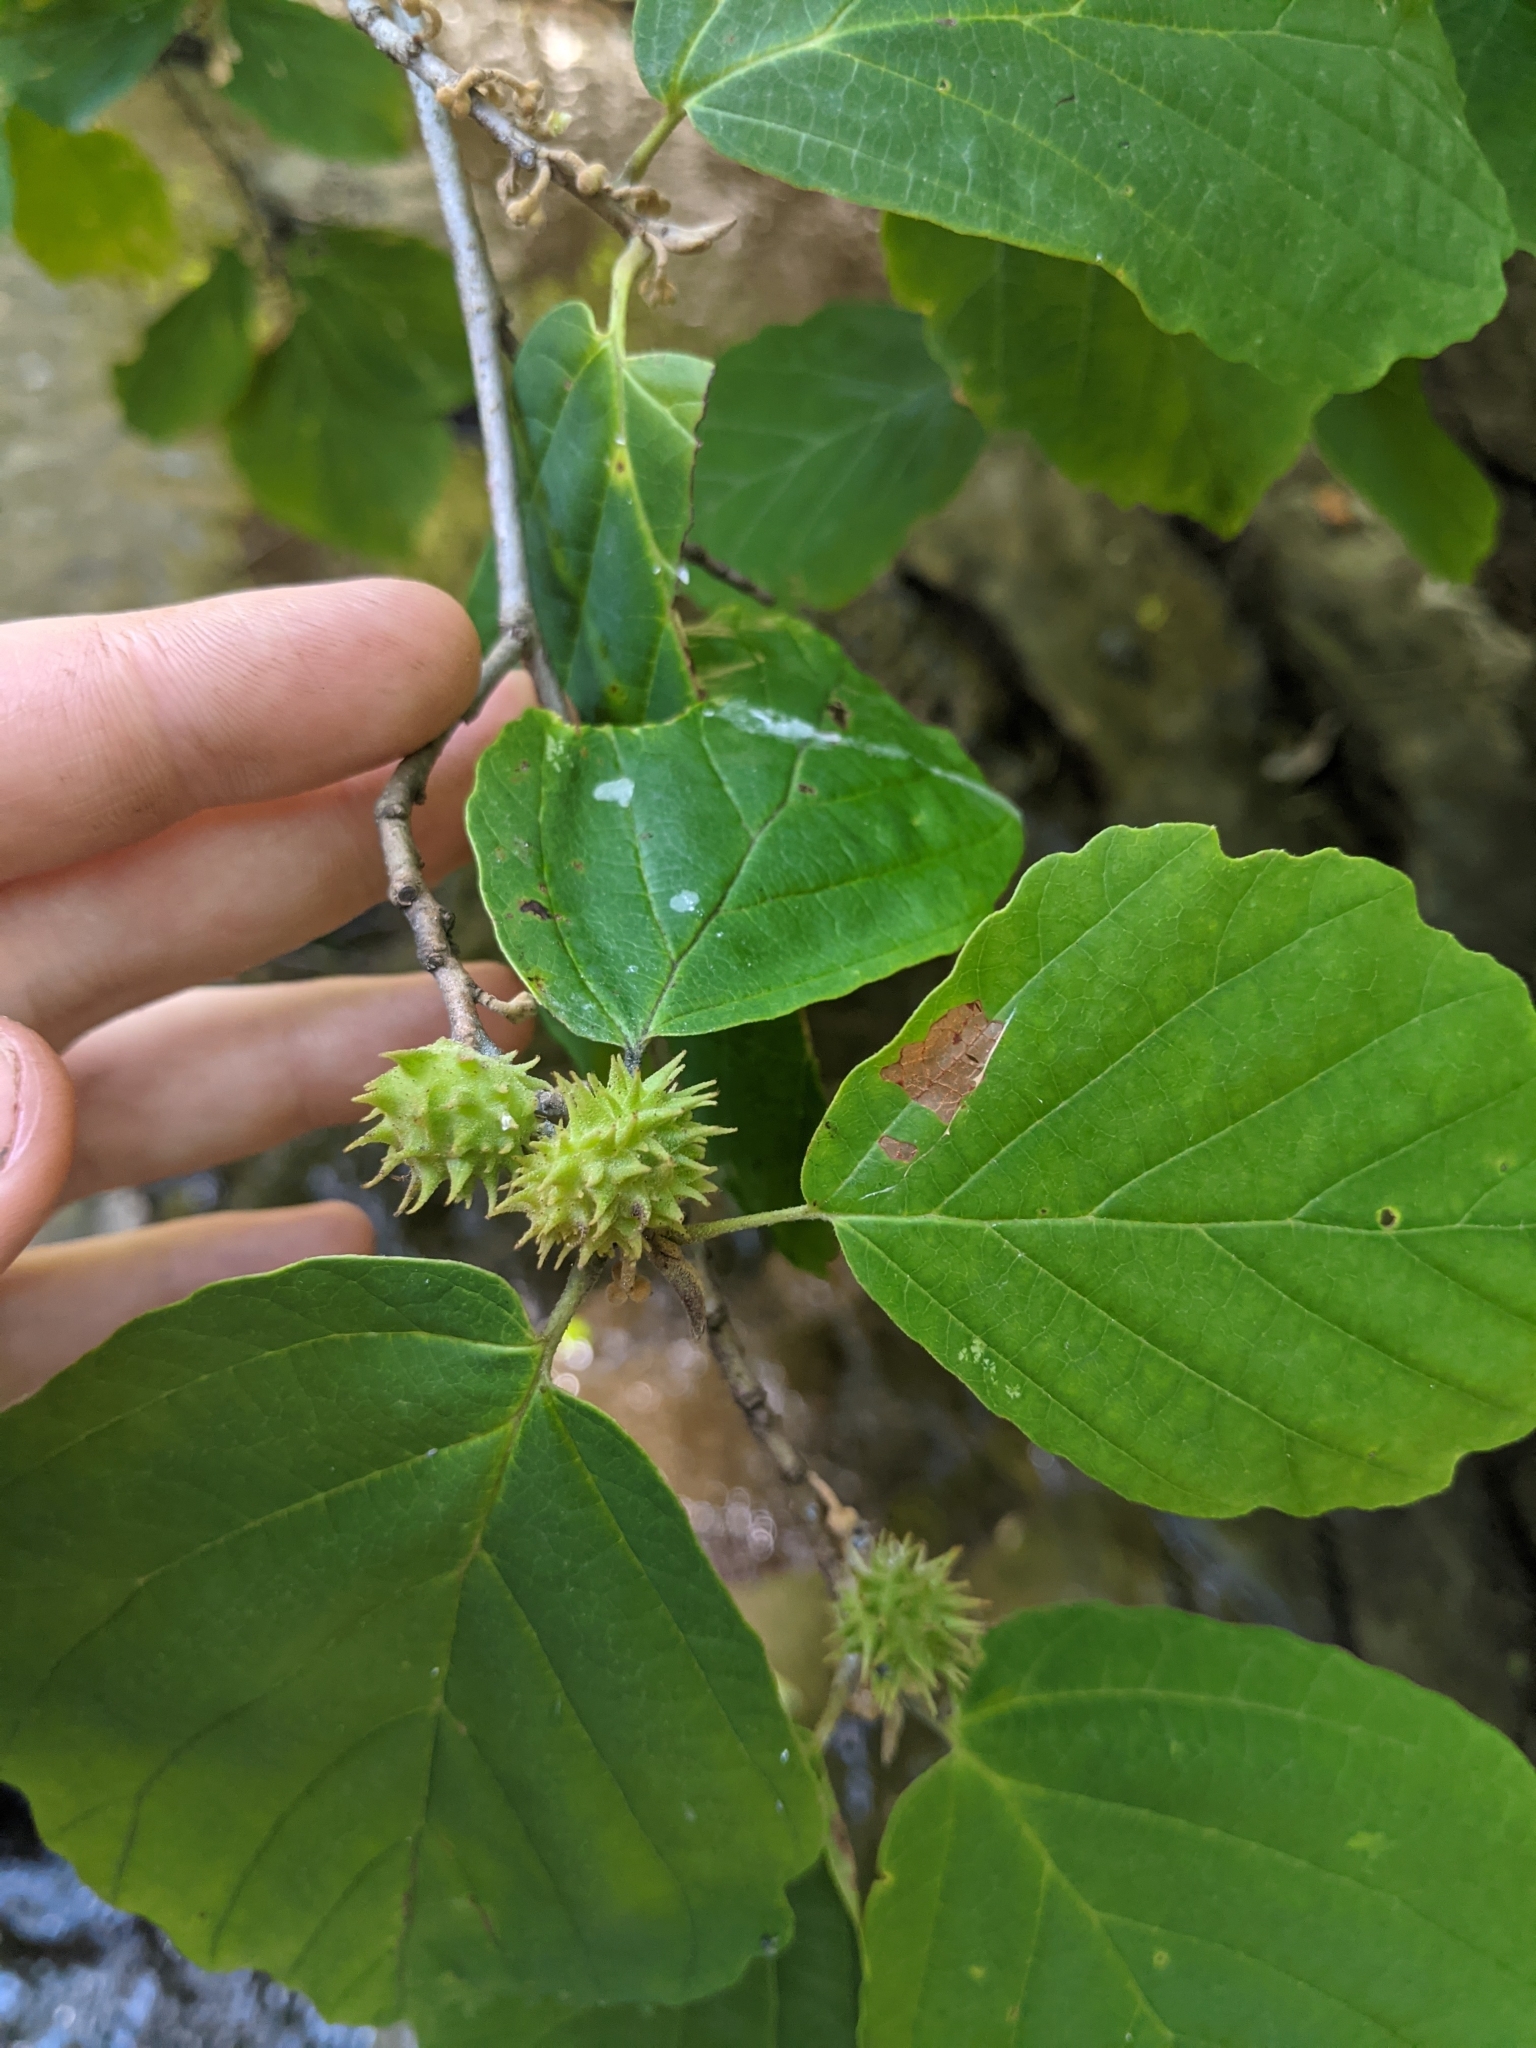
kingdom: Animalia
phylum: Arthropoda
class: Insecta
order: Hemiptera
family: Aphididae
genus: Hamamelistes
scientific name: Hamamelistes spinosus
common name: Witch hazel gall aphid
